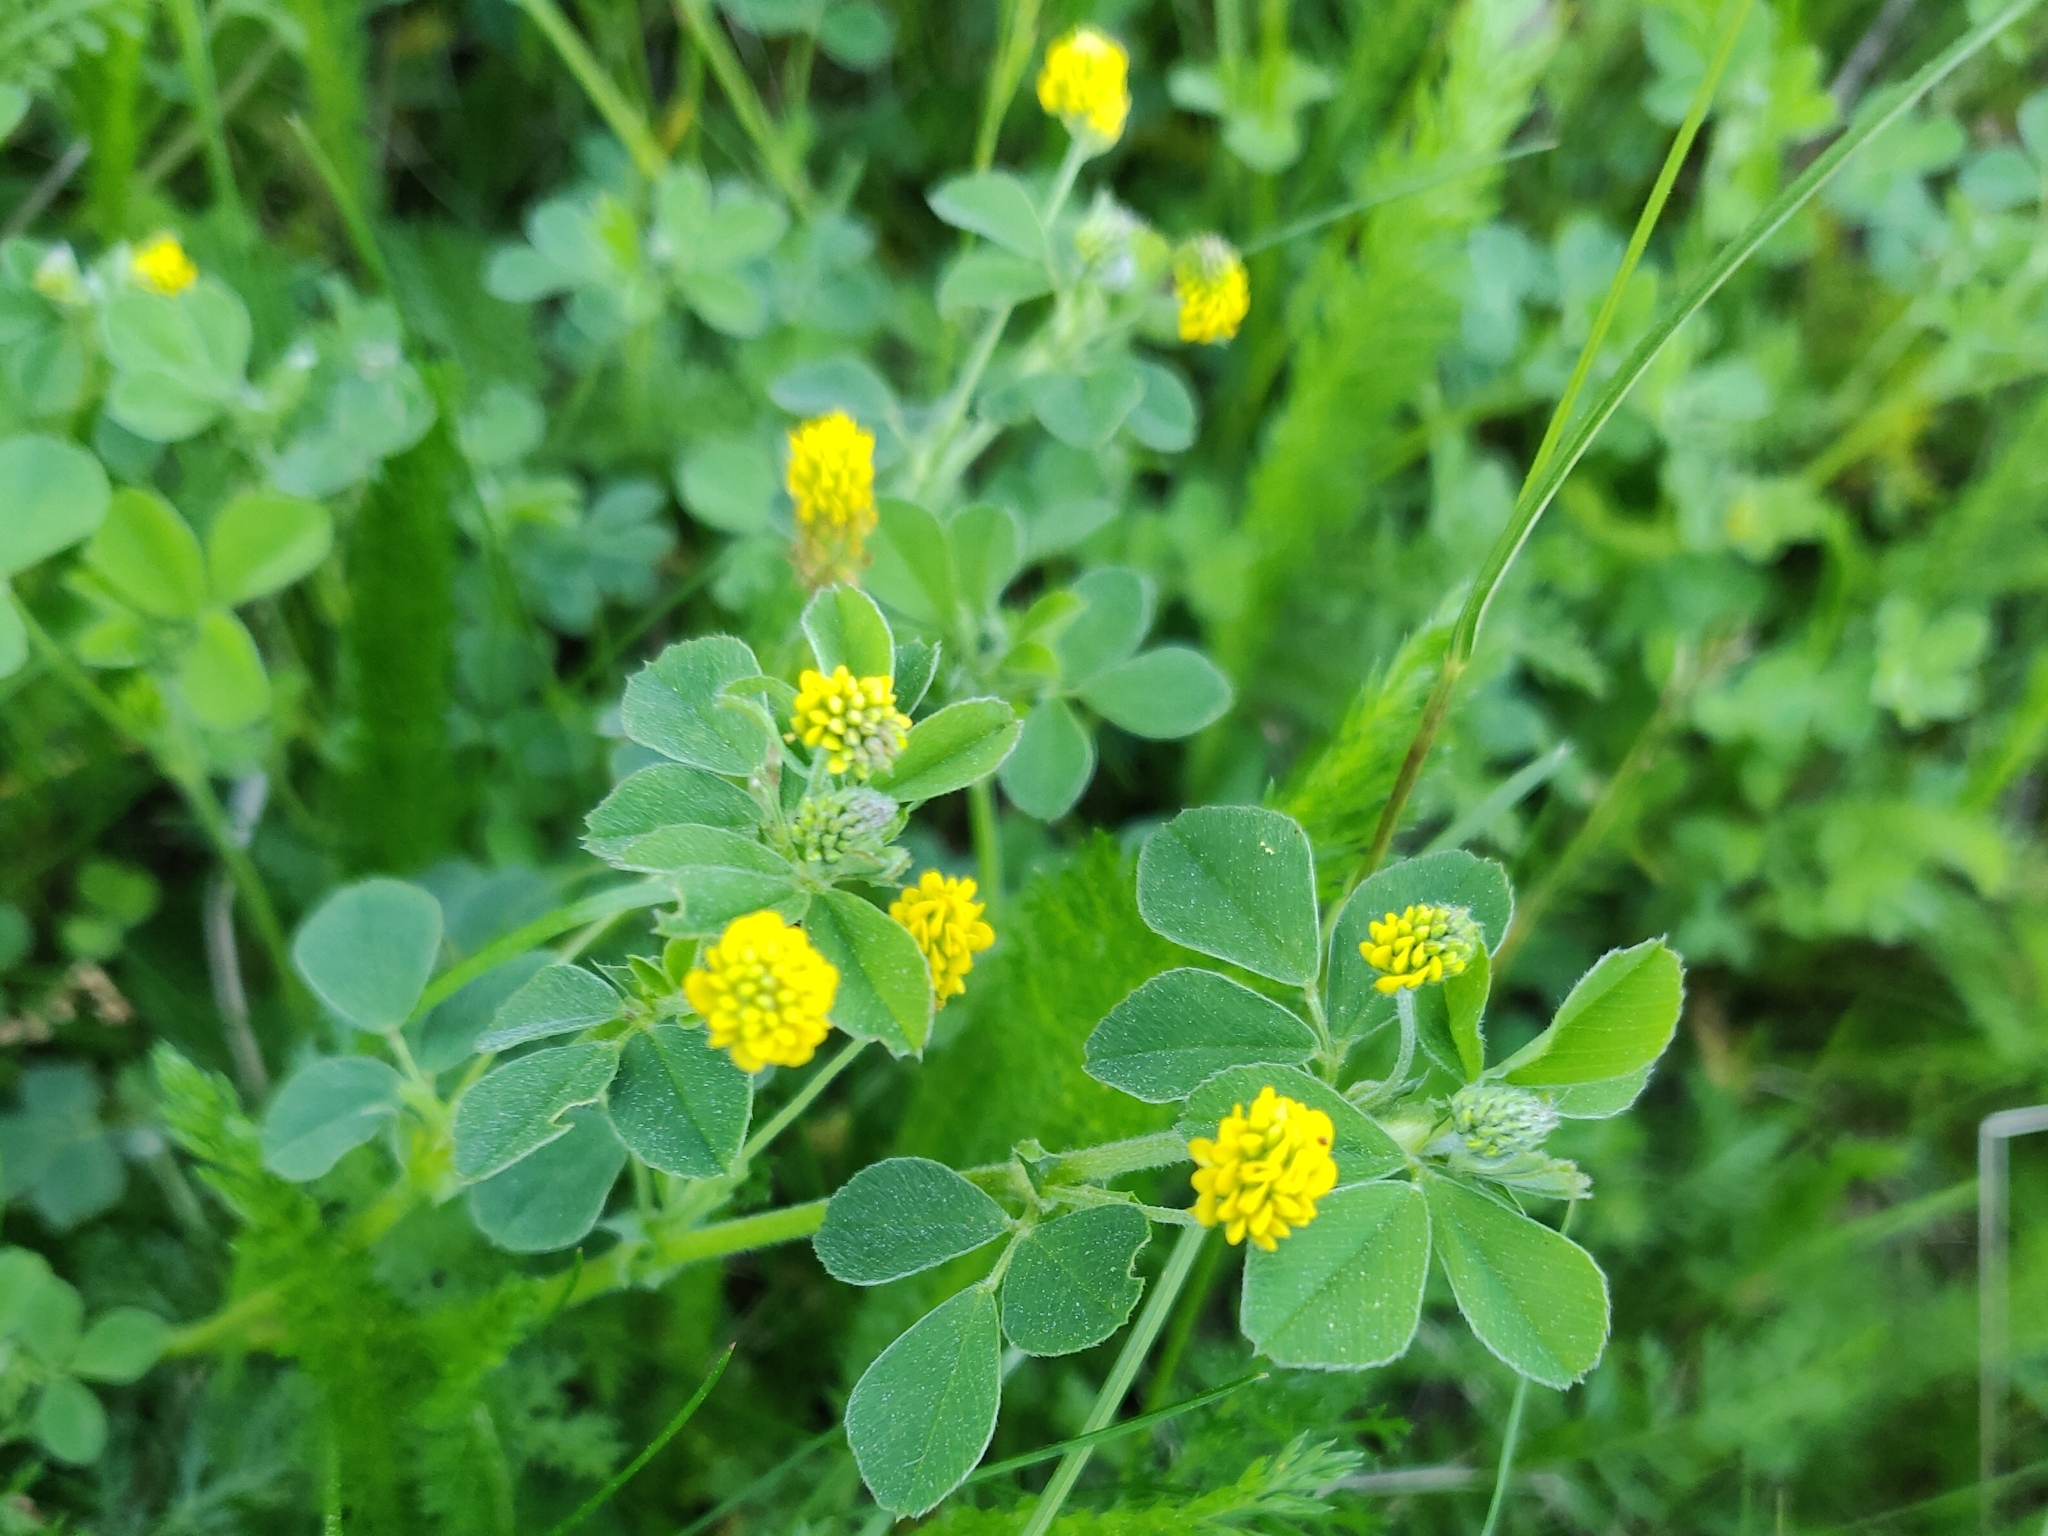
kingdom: Plantae
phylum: Tracheophyta
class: Magnoliopsida
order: Fabales
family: Fabaceae
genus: Medicago
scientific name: Medicago lupulina
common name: Black medick
